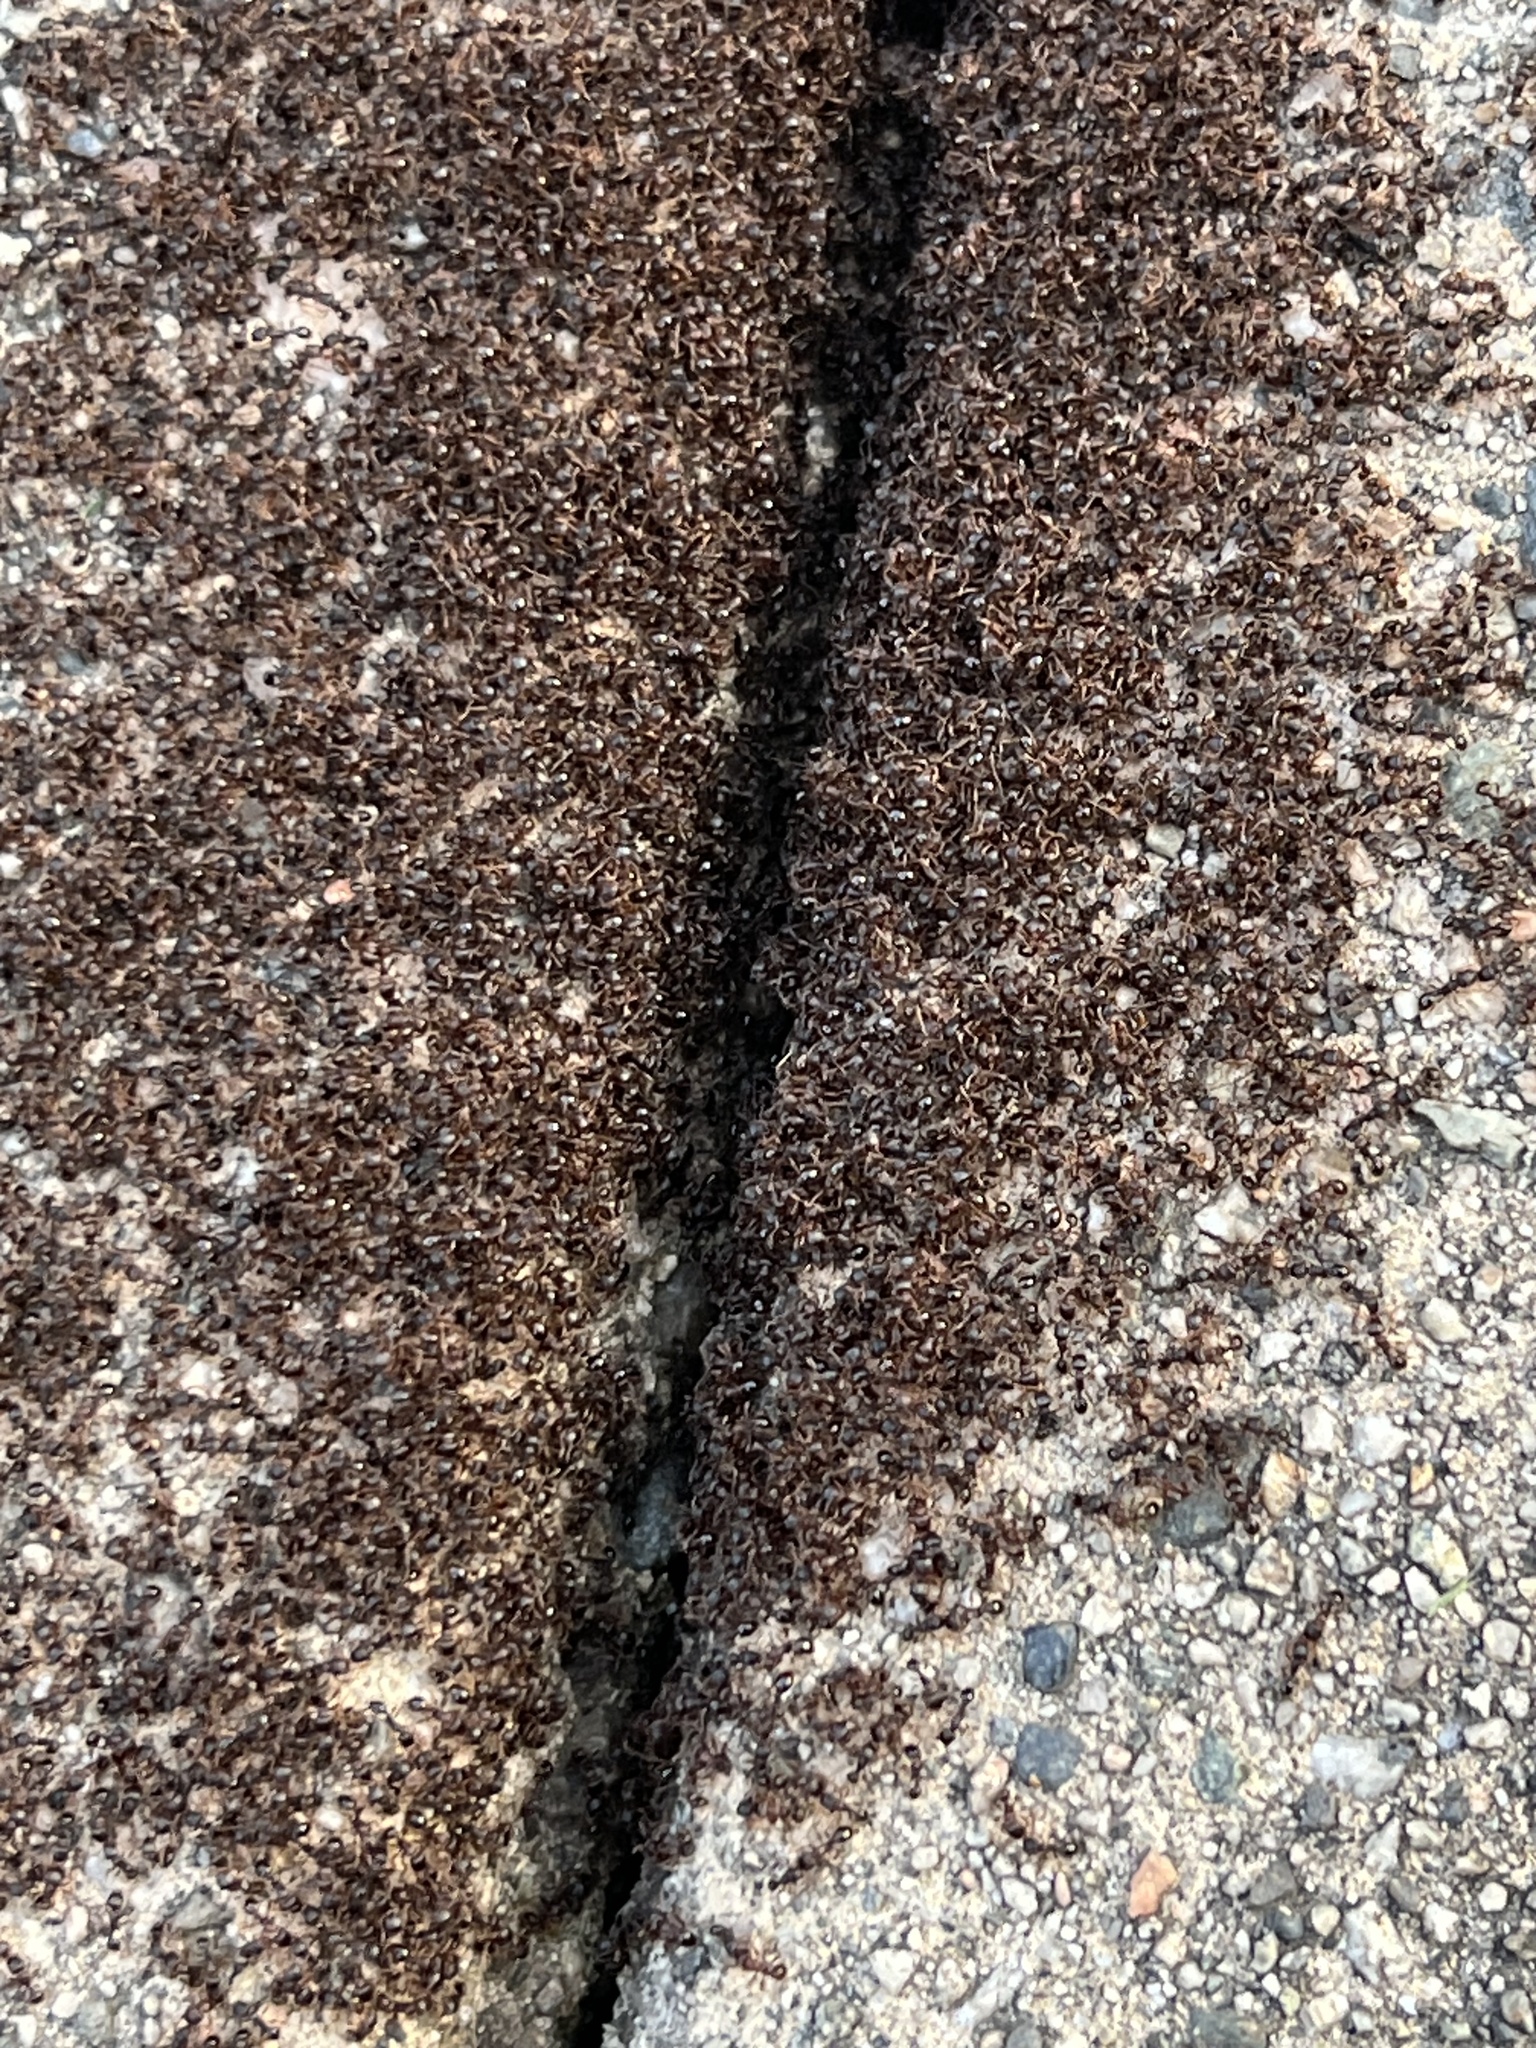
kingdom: Animalia
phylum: Arthropoda
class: Insecta
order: Hymenoptera
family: Formicidae
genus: Tetramorium
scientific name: Tetramorium immigrans
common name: Pavement ant
